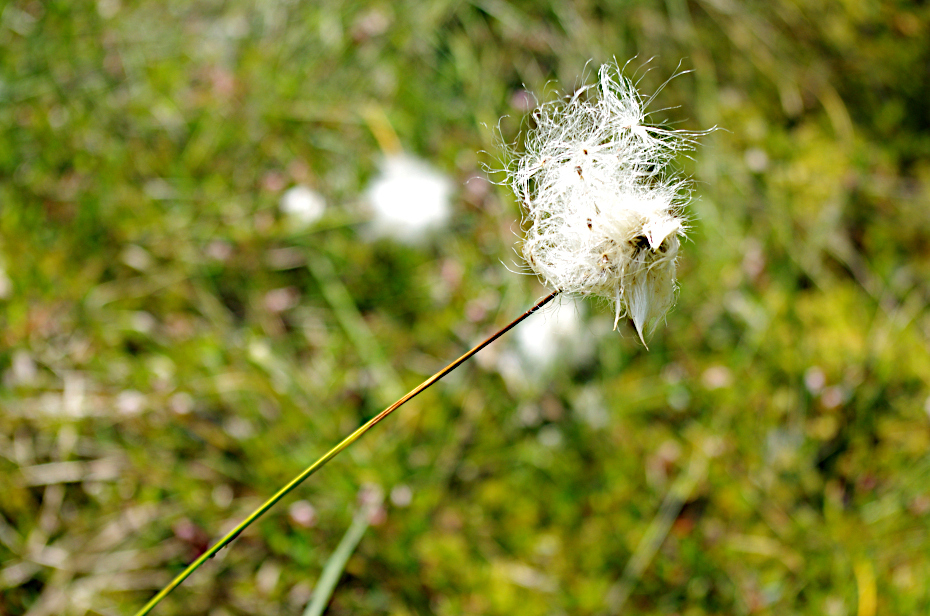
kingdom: Plantae
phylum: Tracheophyta
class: Liliopsida
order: Poales
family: Cyperaceae
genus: Eriophorum
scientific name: Eriophorum vaginatum
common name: Hare's-tail cottongrass
